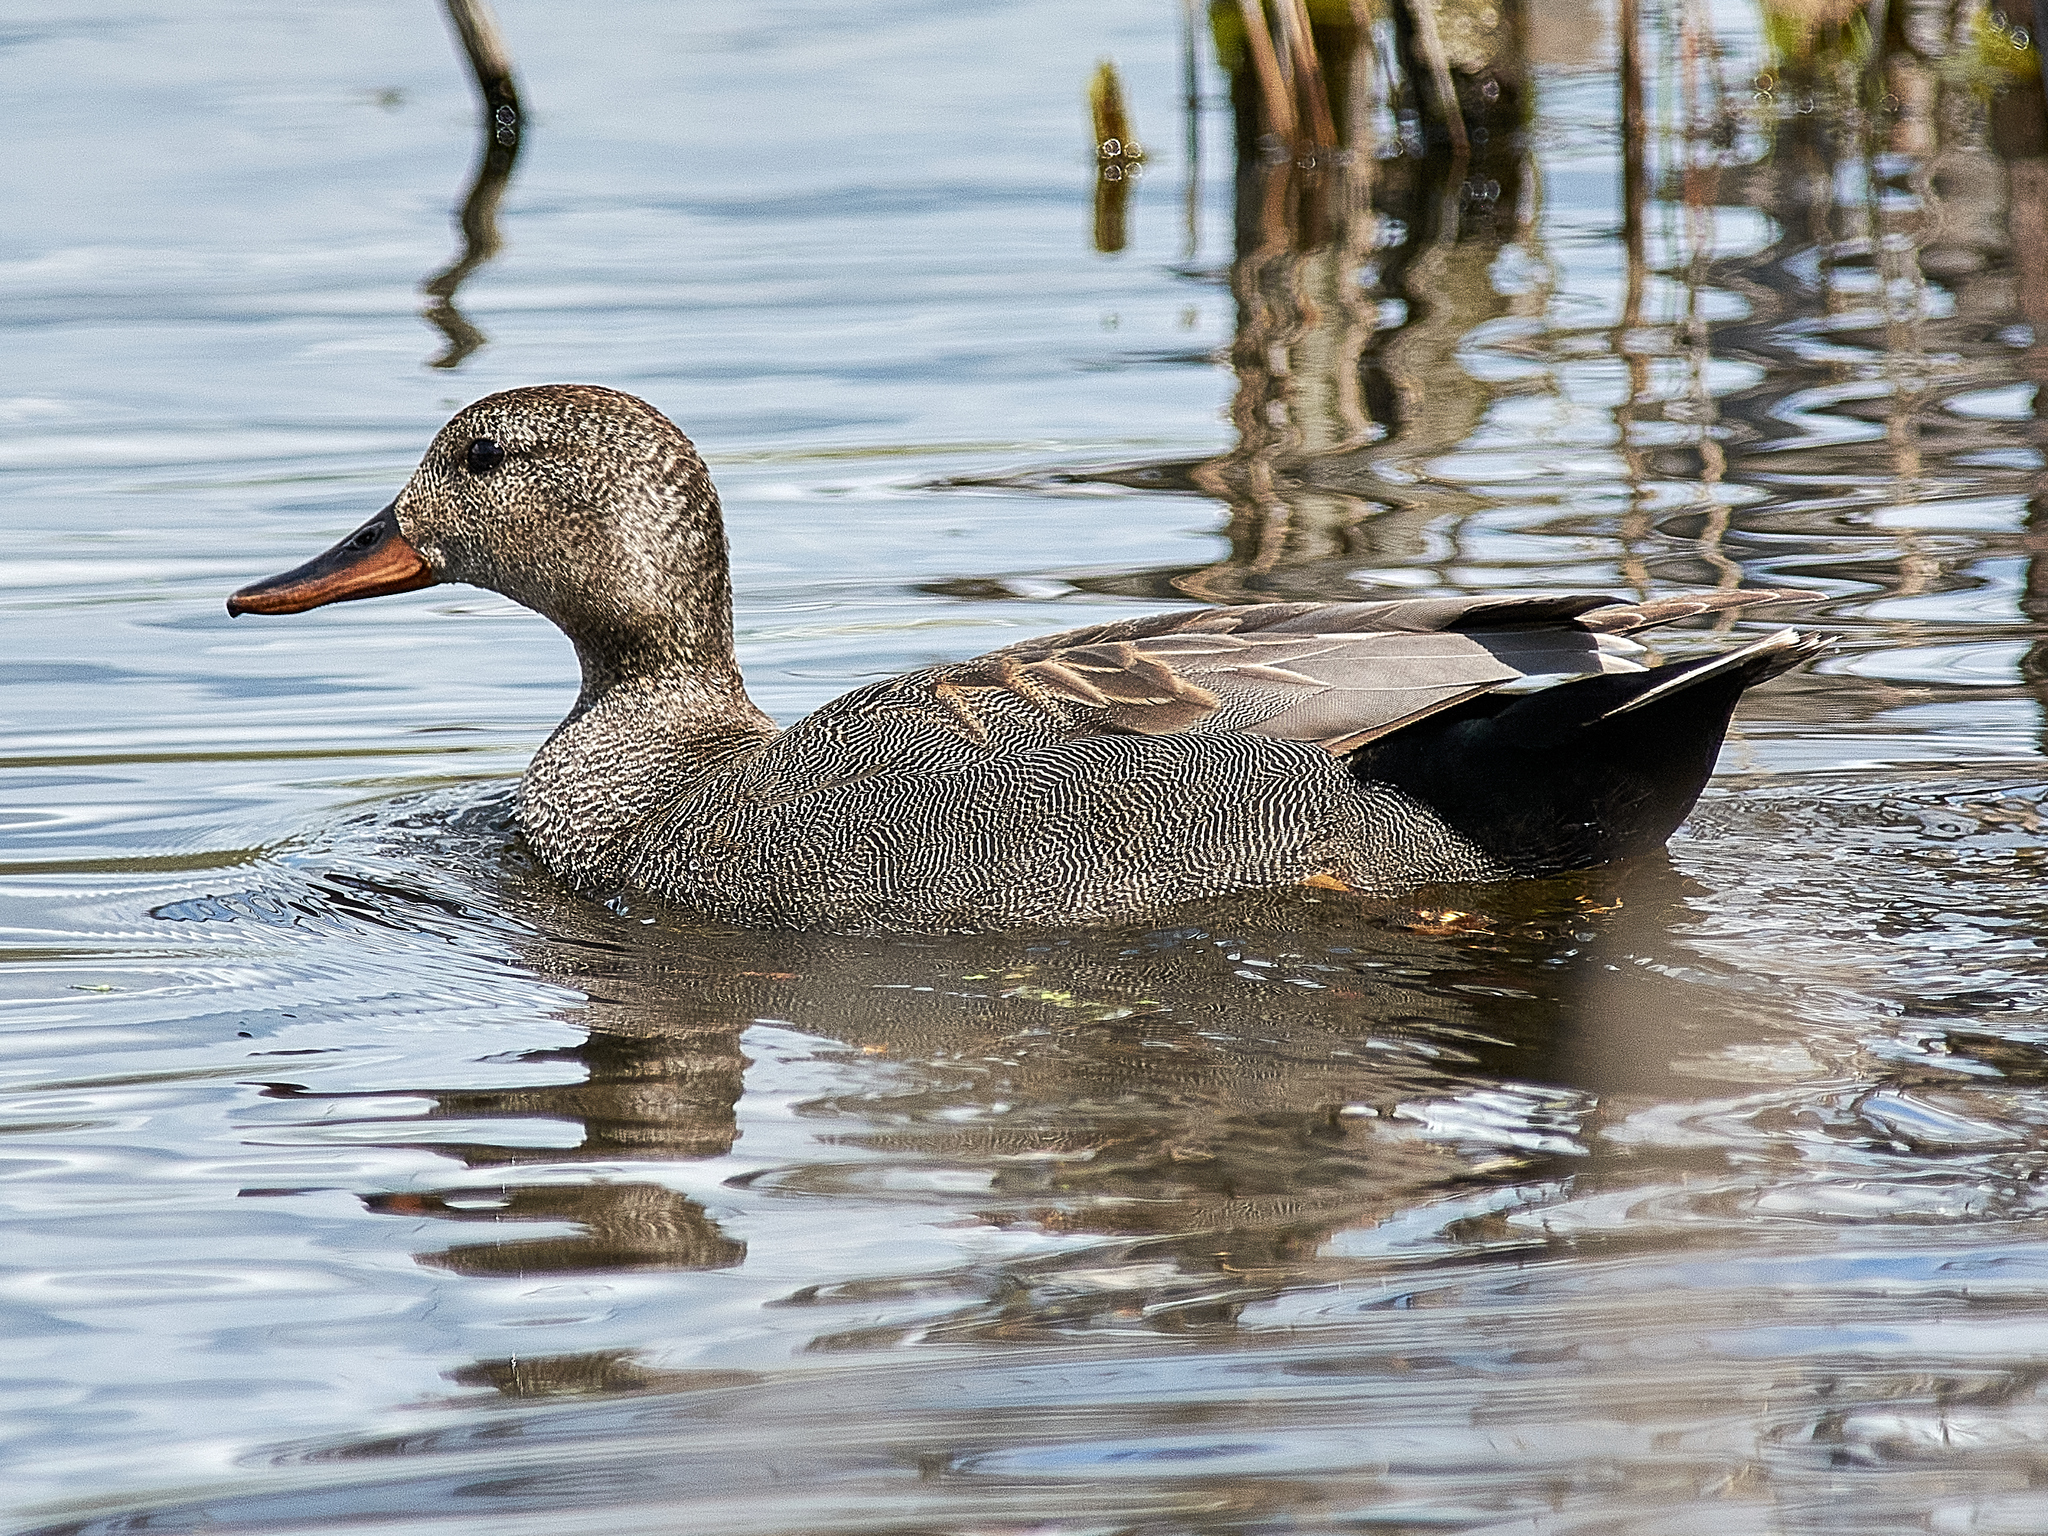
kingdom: Animalia
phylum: Chordata
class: Aves
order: Anseriformes
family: Anatidae
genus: Mareca
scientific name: Mareca strepera
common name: Gadwall
